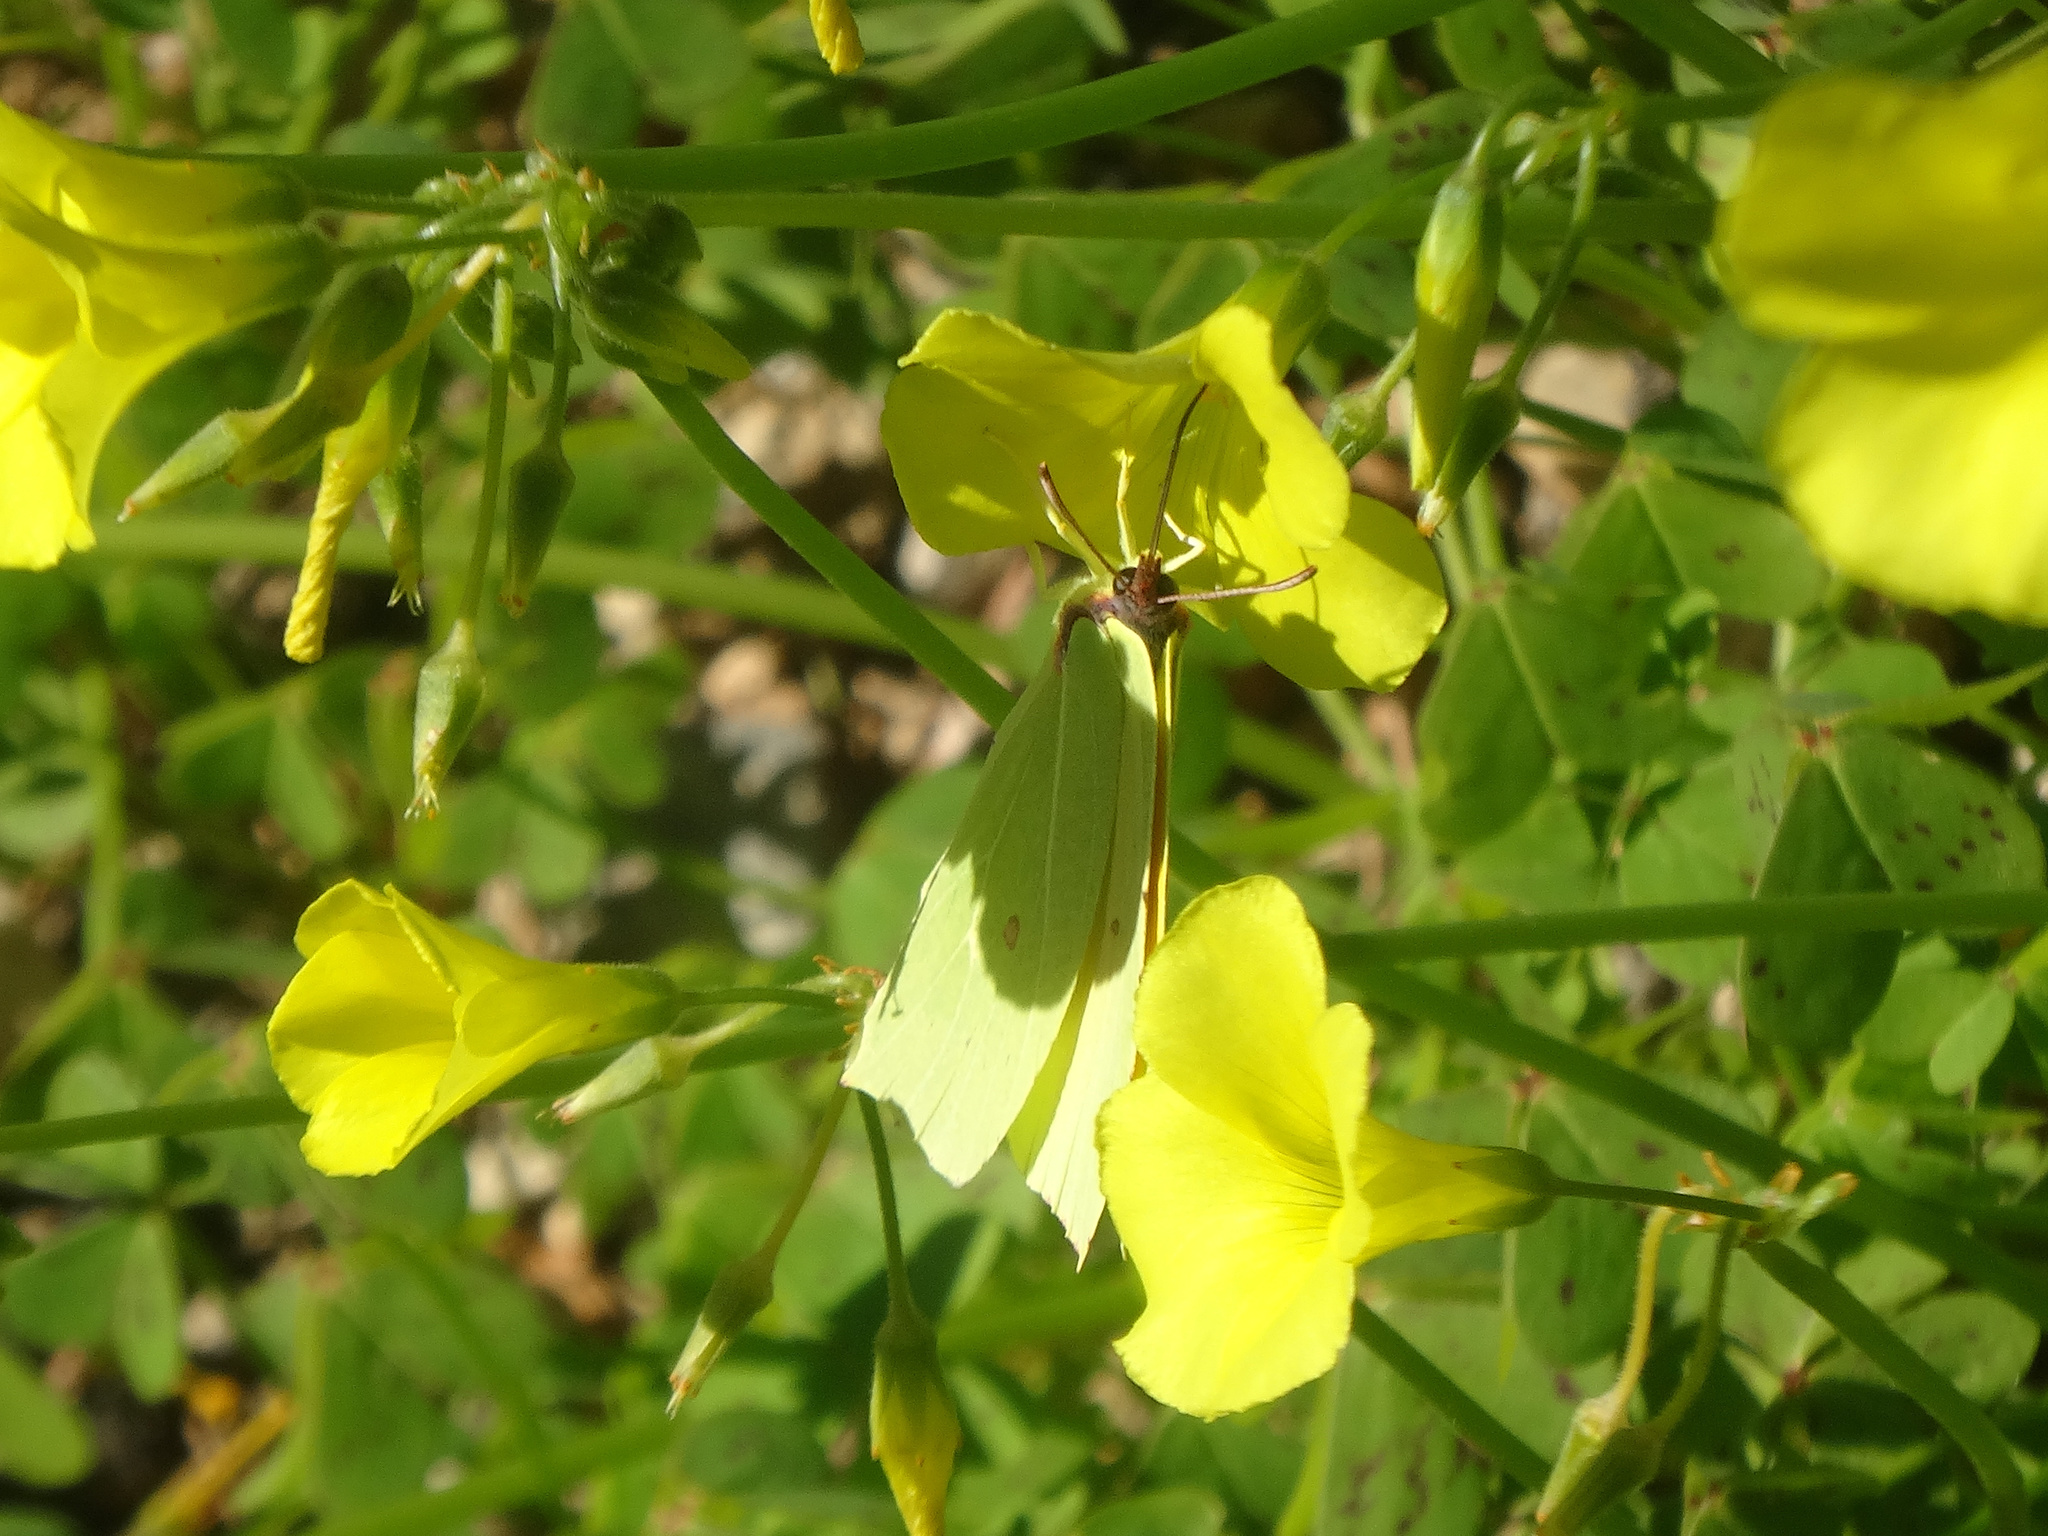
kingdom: Animalia
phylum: Arthropoda
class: Insecta
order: Lepidoptera
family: Pieridae
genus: Gonepteryx
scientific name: Gonepteryx cleopatra
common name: Cleopatra
